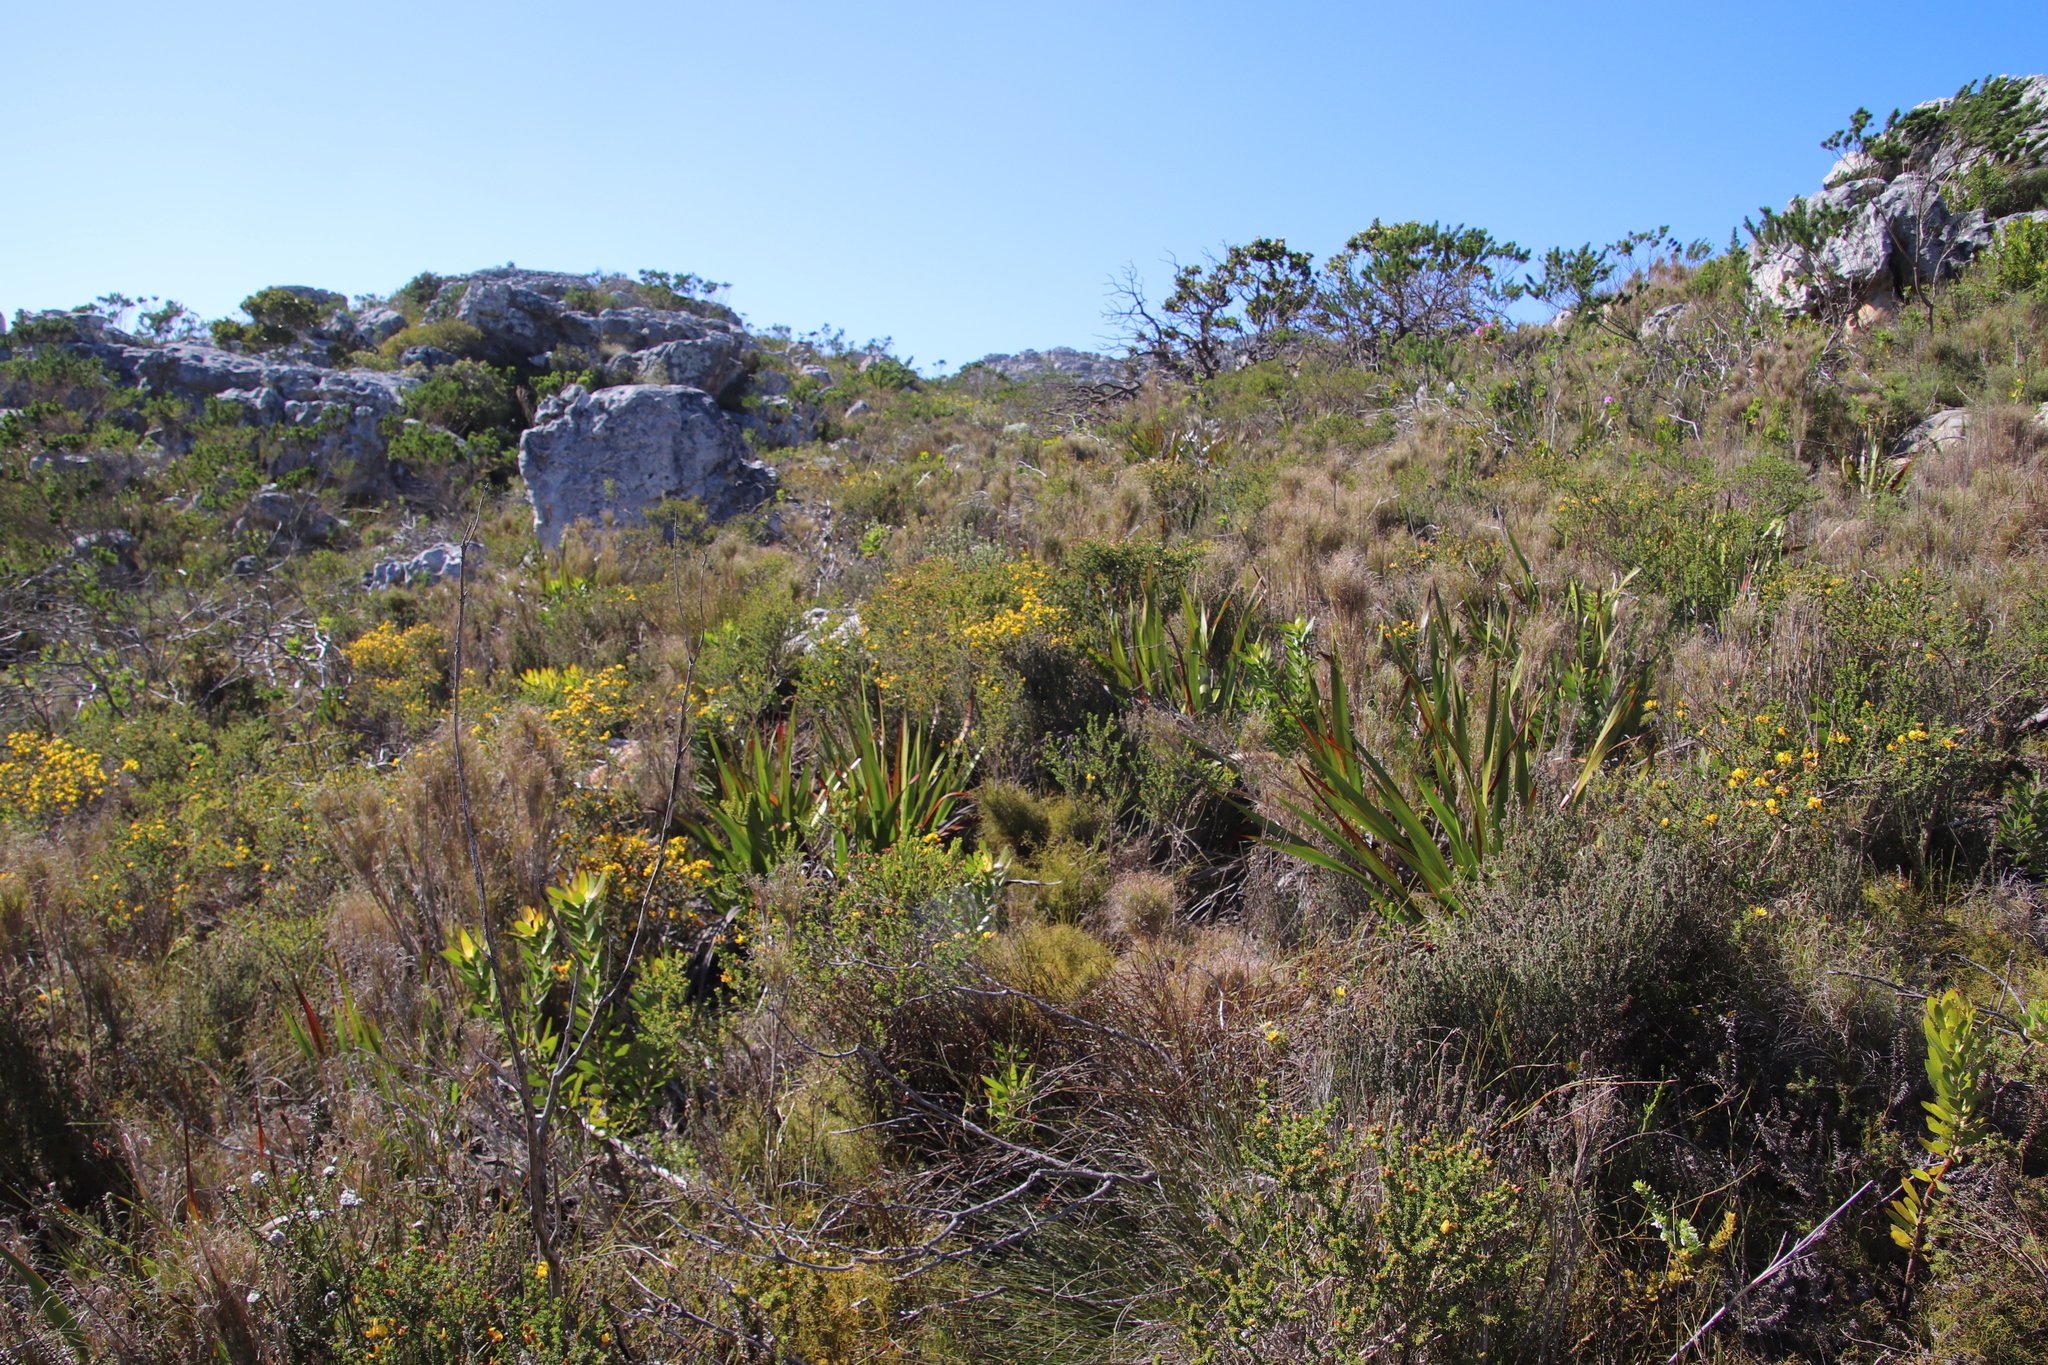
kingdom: Plantae
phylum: Tracheophyta
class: Magnoliopsida
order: Fabales
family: Fabaceae
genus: Aspalathus
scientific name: Aspalathus carnosa
